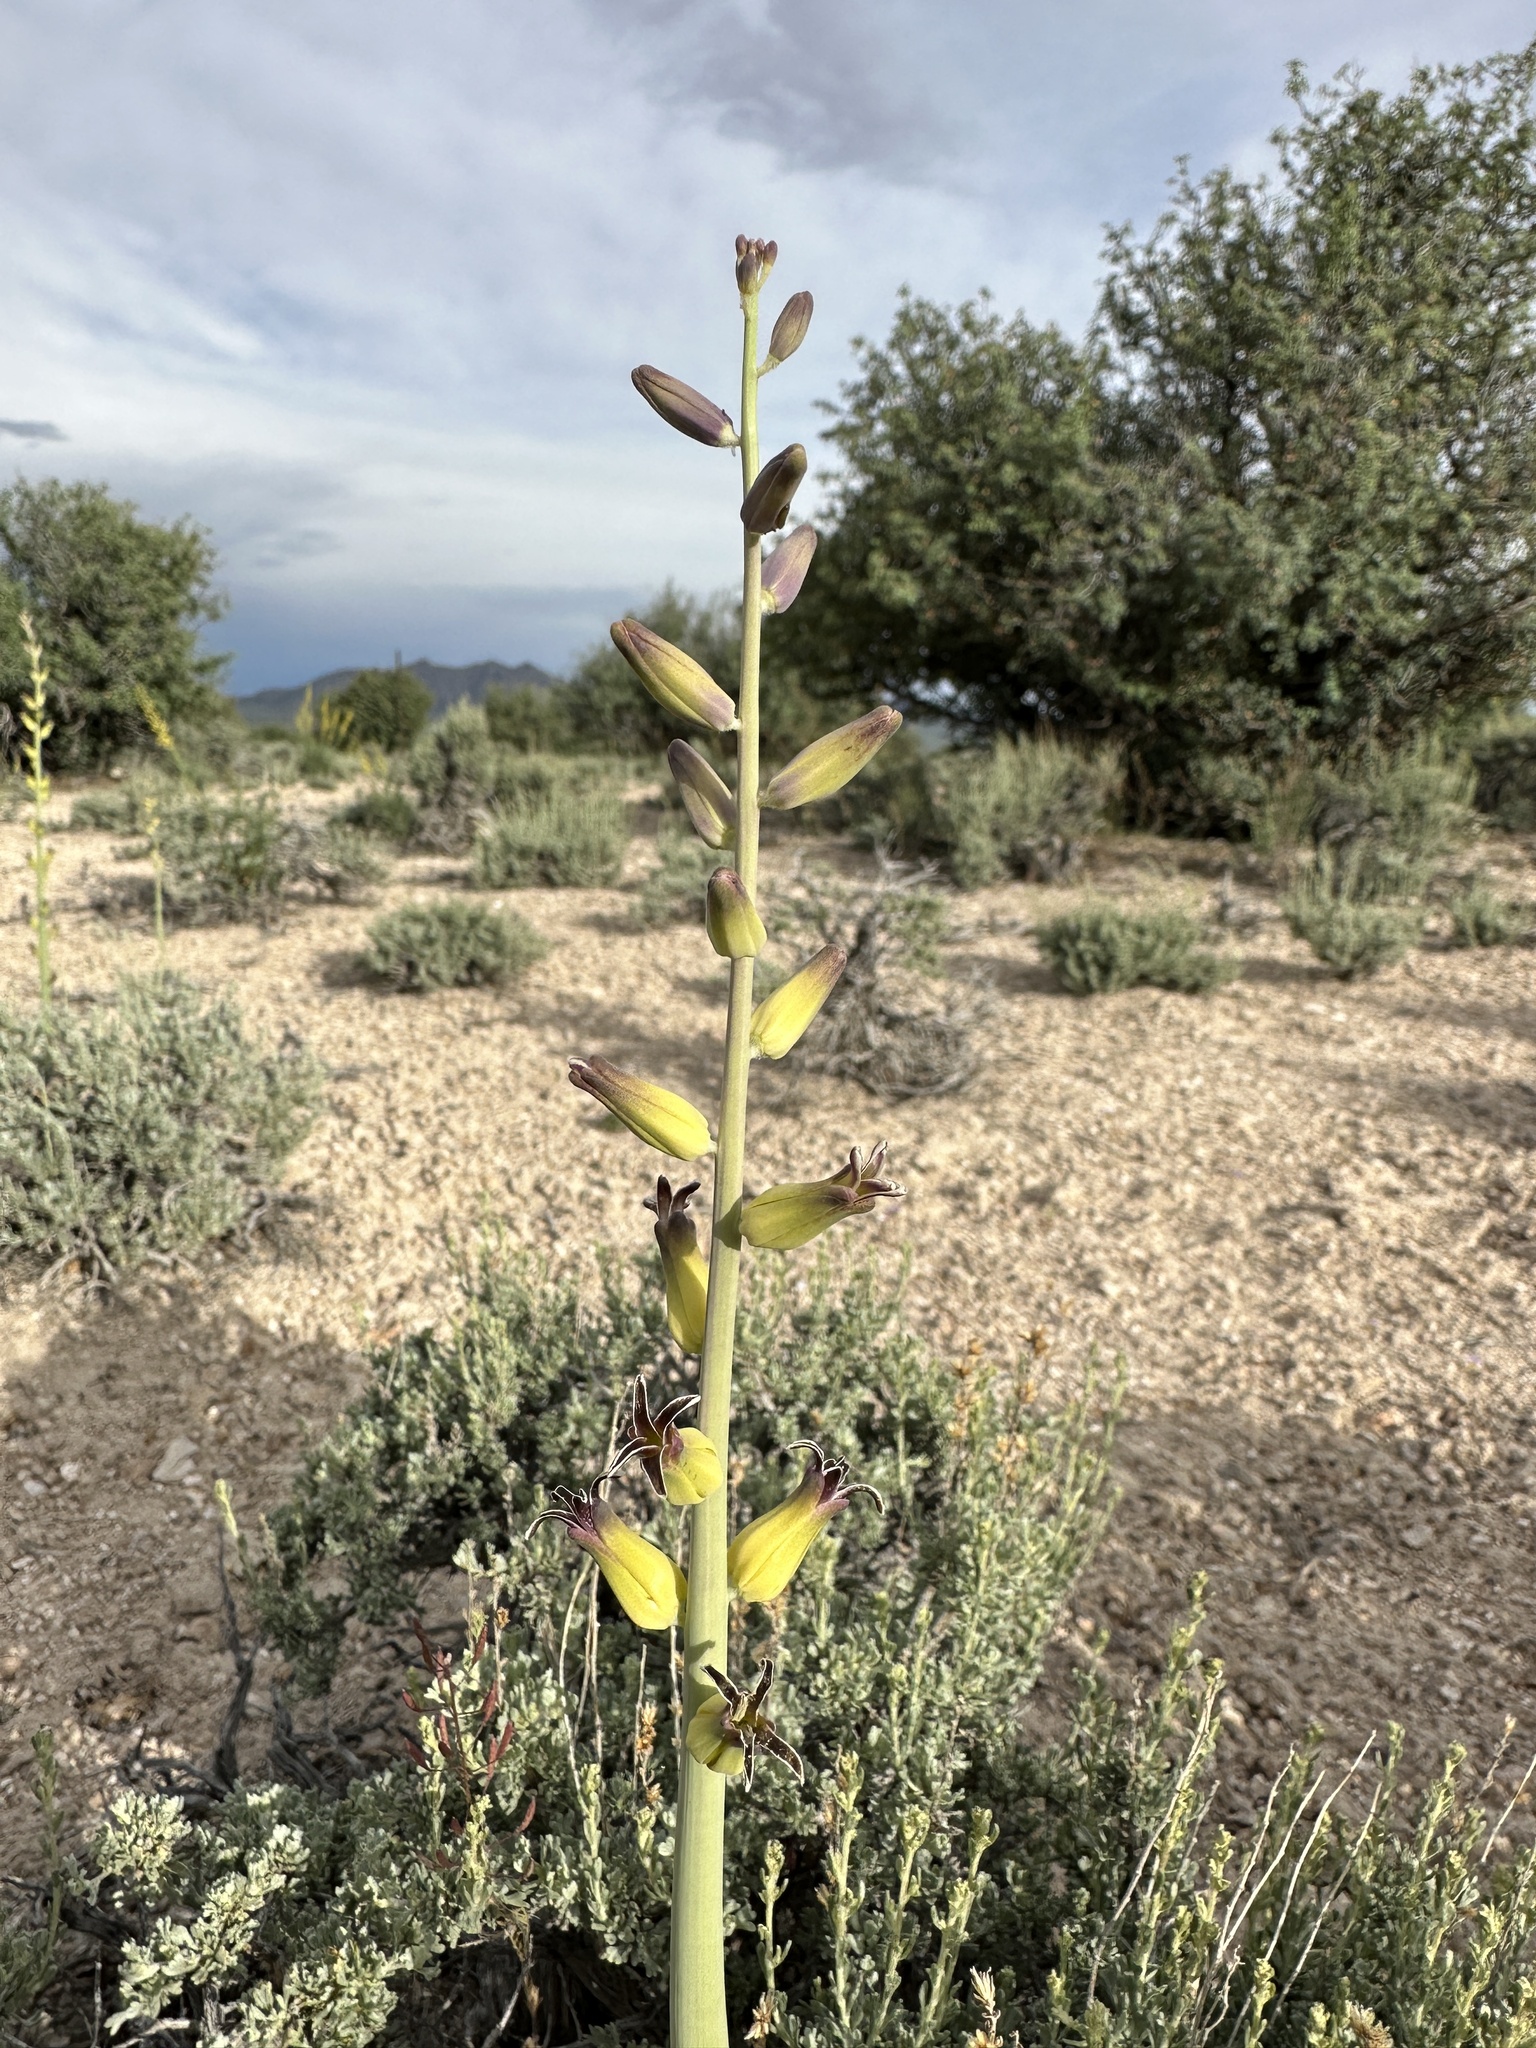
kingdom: Plantae
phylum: Tracheophyta
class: Magnoliopsida
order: Brassicales
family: Brassicaceae
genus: Streptanthus
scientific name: Streptanthus crassicaulis
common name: Thick-stem wild cabbage
